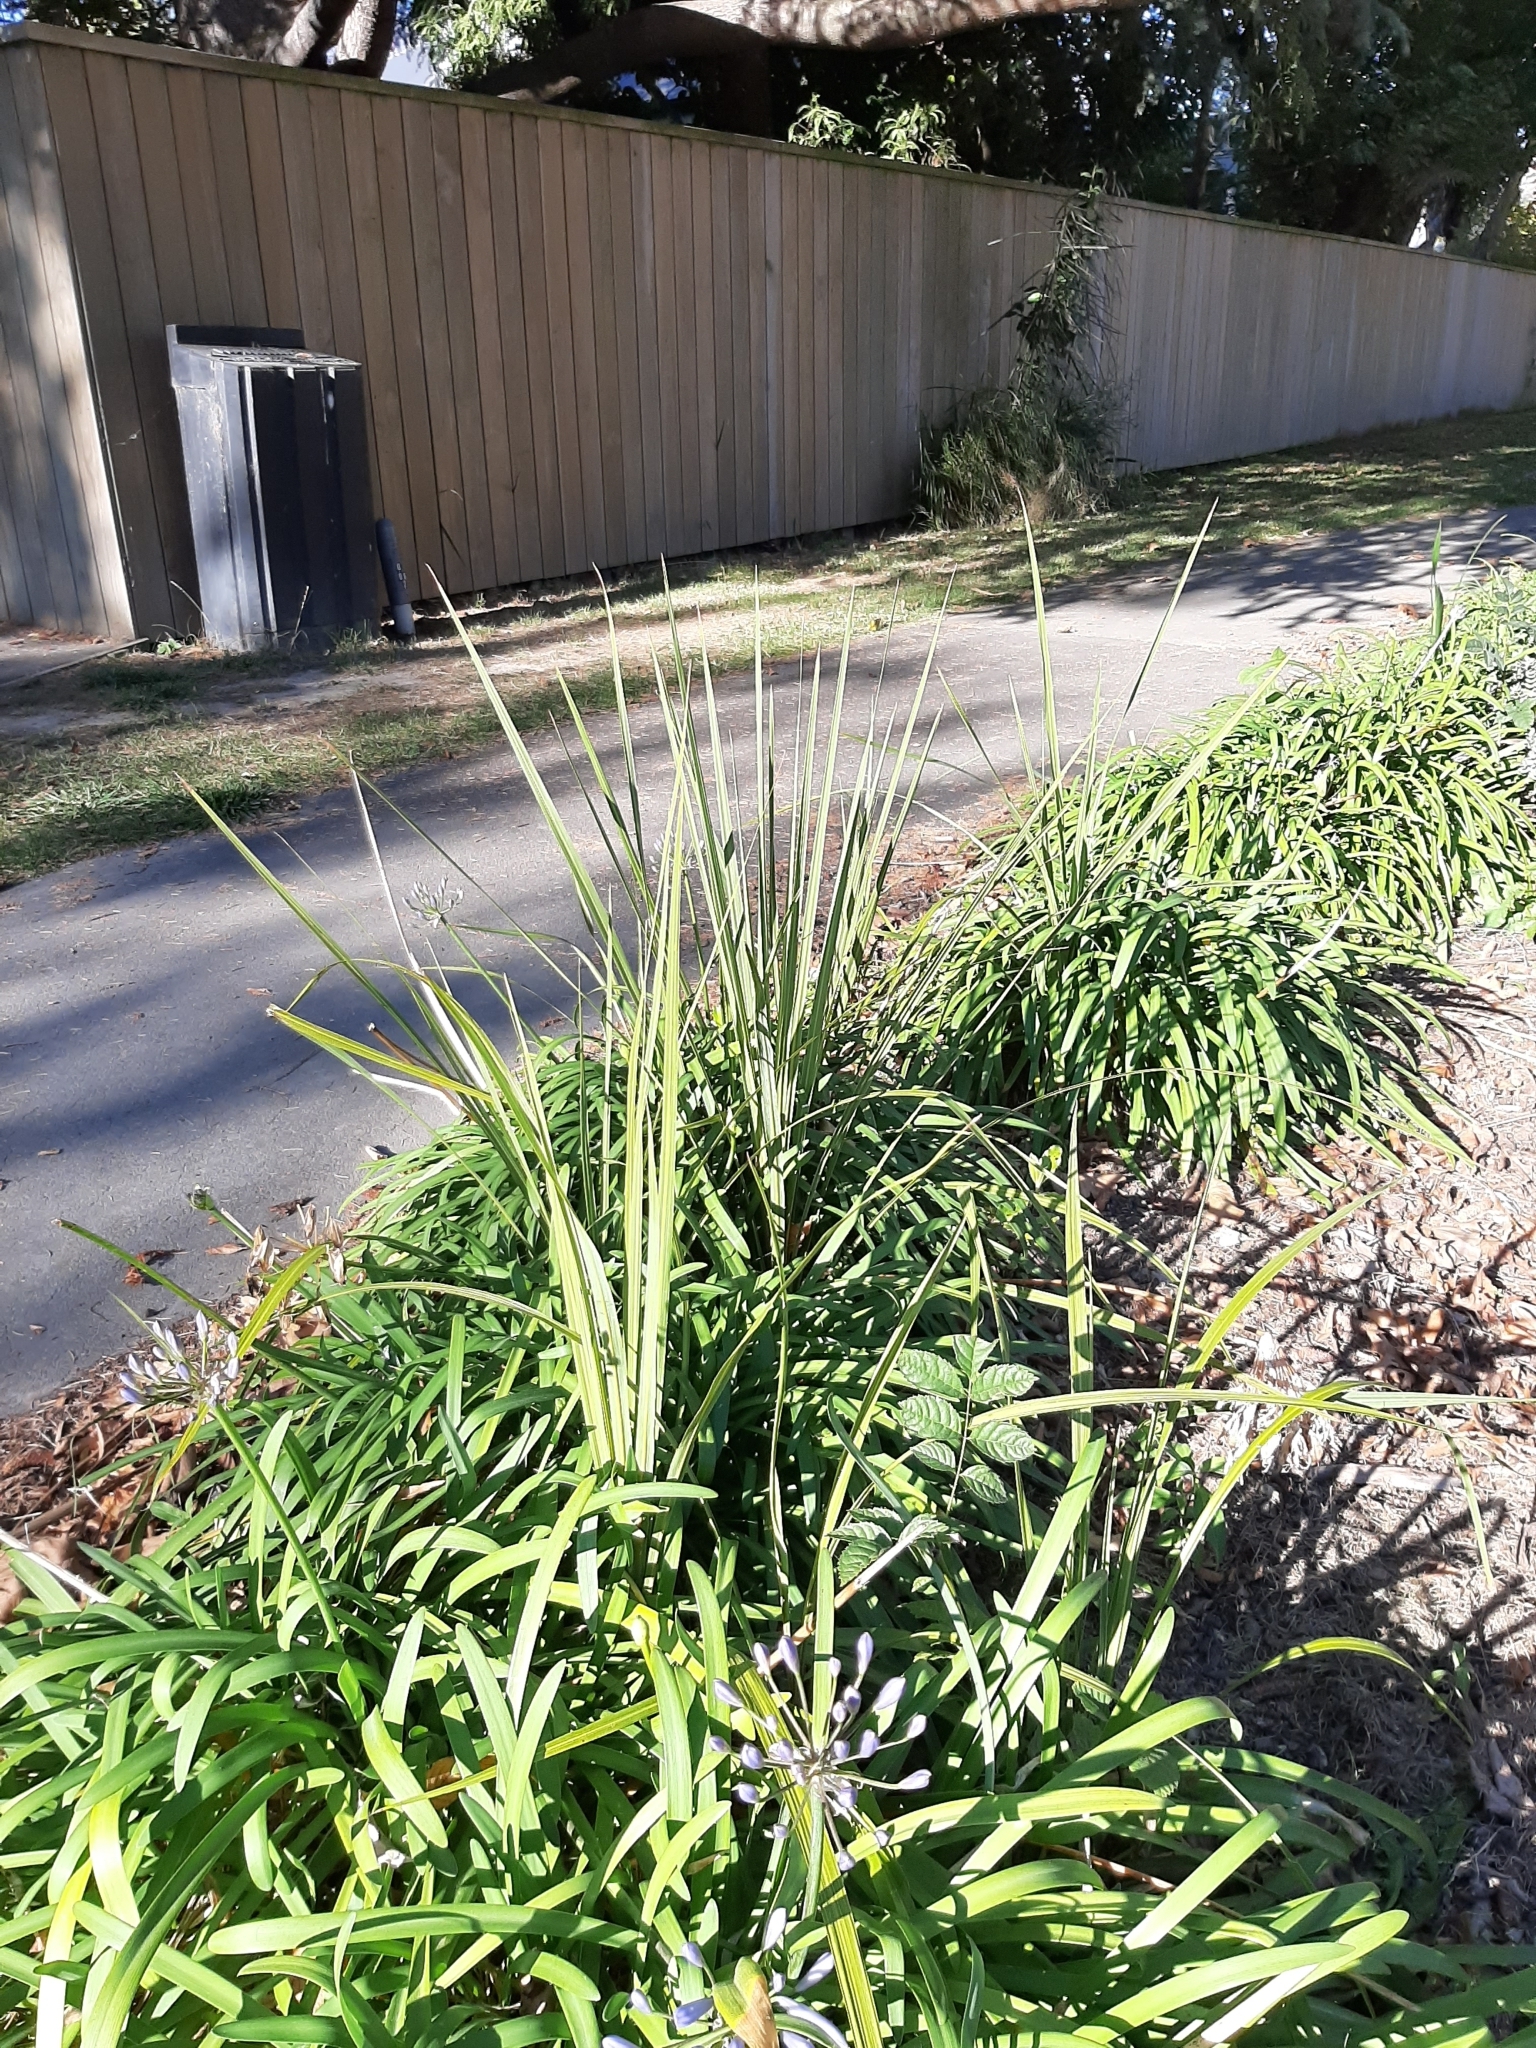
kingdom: Plantae
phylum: Tracheophyta
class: Liliopsida
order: Asparagales
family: Asparagaceae
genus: Cordyline
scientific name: Cordyline australis
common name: Cabbage-palm
